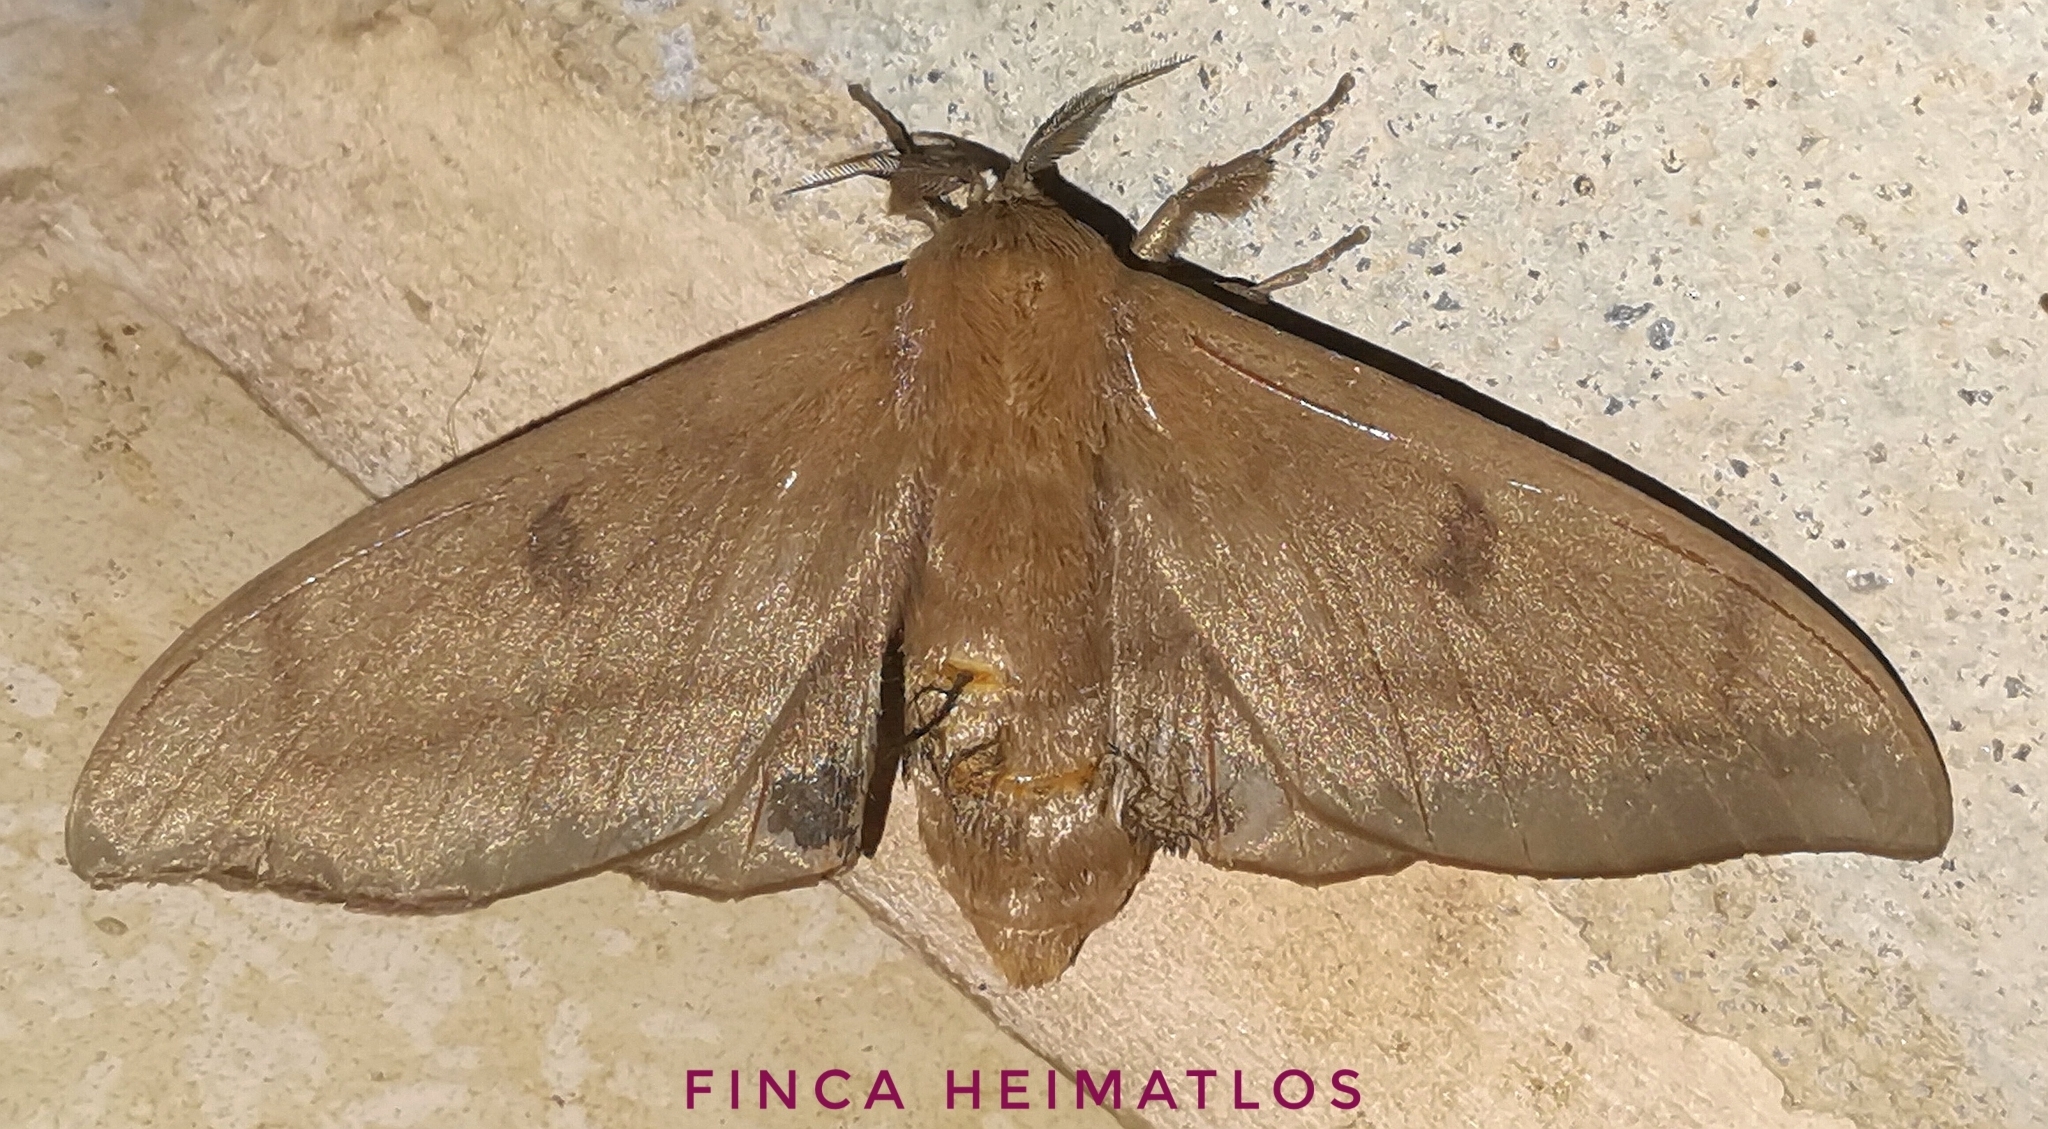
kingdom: Animalia
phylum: Arthropoda
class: Insecta
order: Lepidoptera
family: Mimallonidae
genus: Psychocampa
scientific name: Psychocampa concolor
